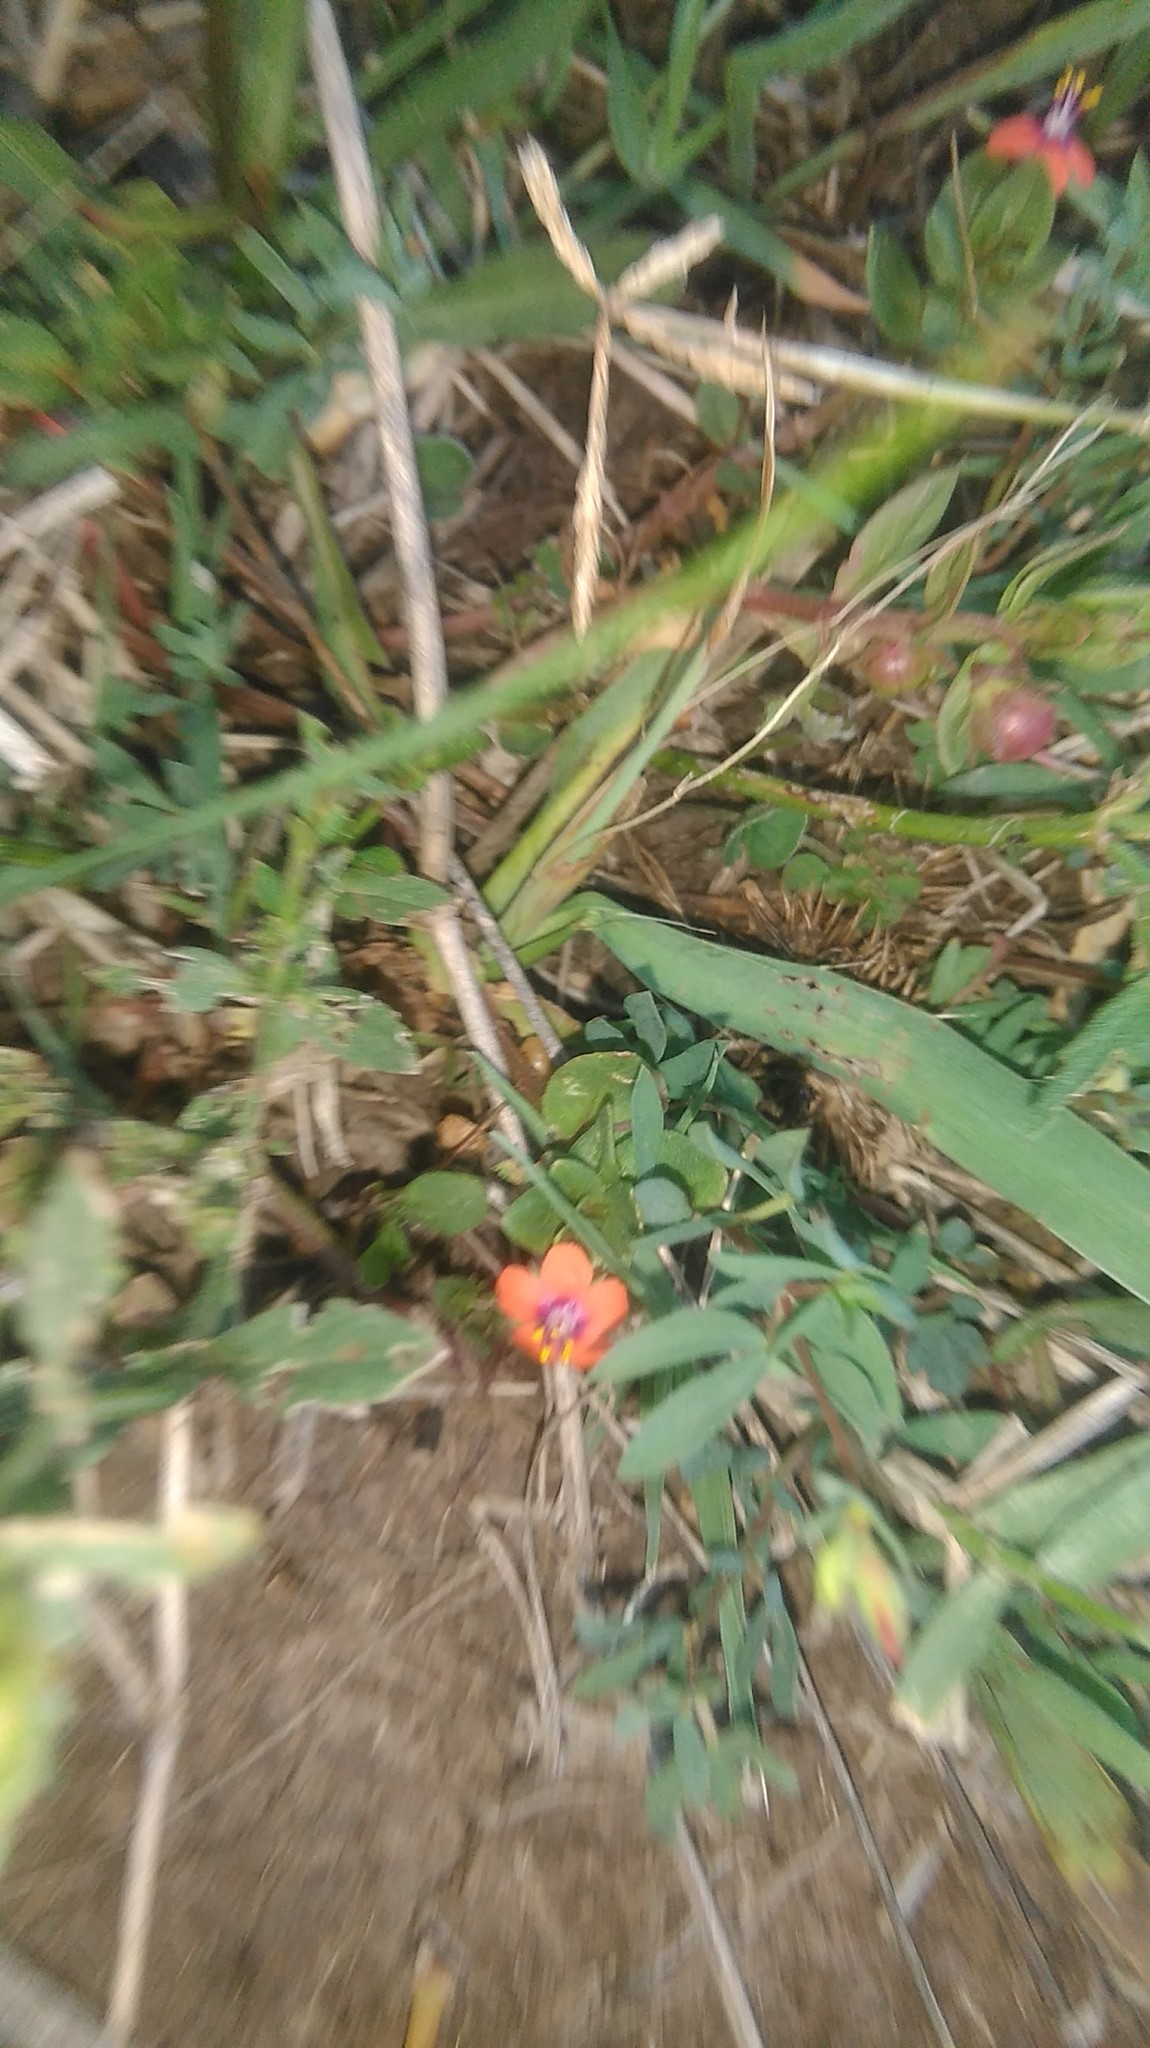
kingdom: Plantae
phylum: Tracheophyta
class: Magnoliopsida
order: Ericales
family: Primulaceae
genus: Lysimachia
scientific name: Lysimachia arvensis
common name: Scarlet pimpernel
